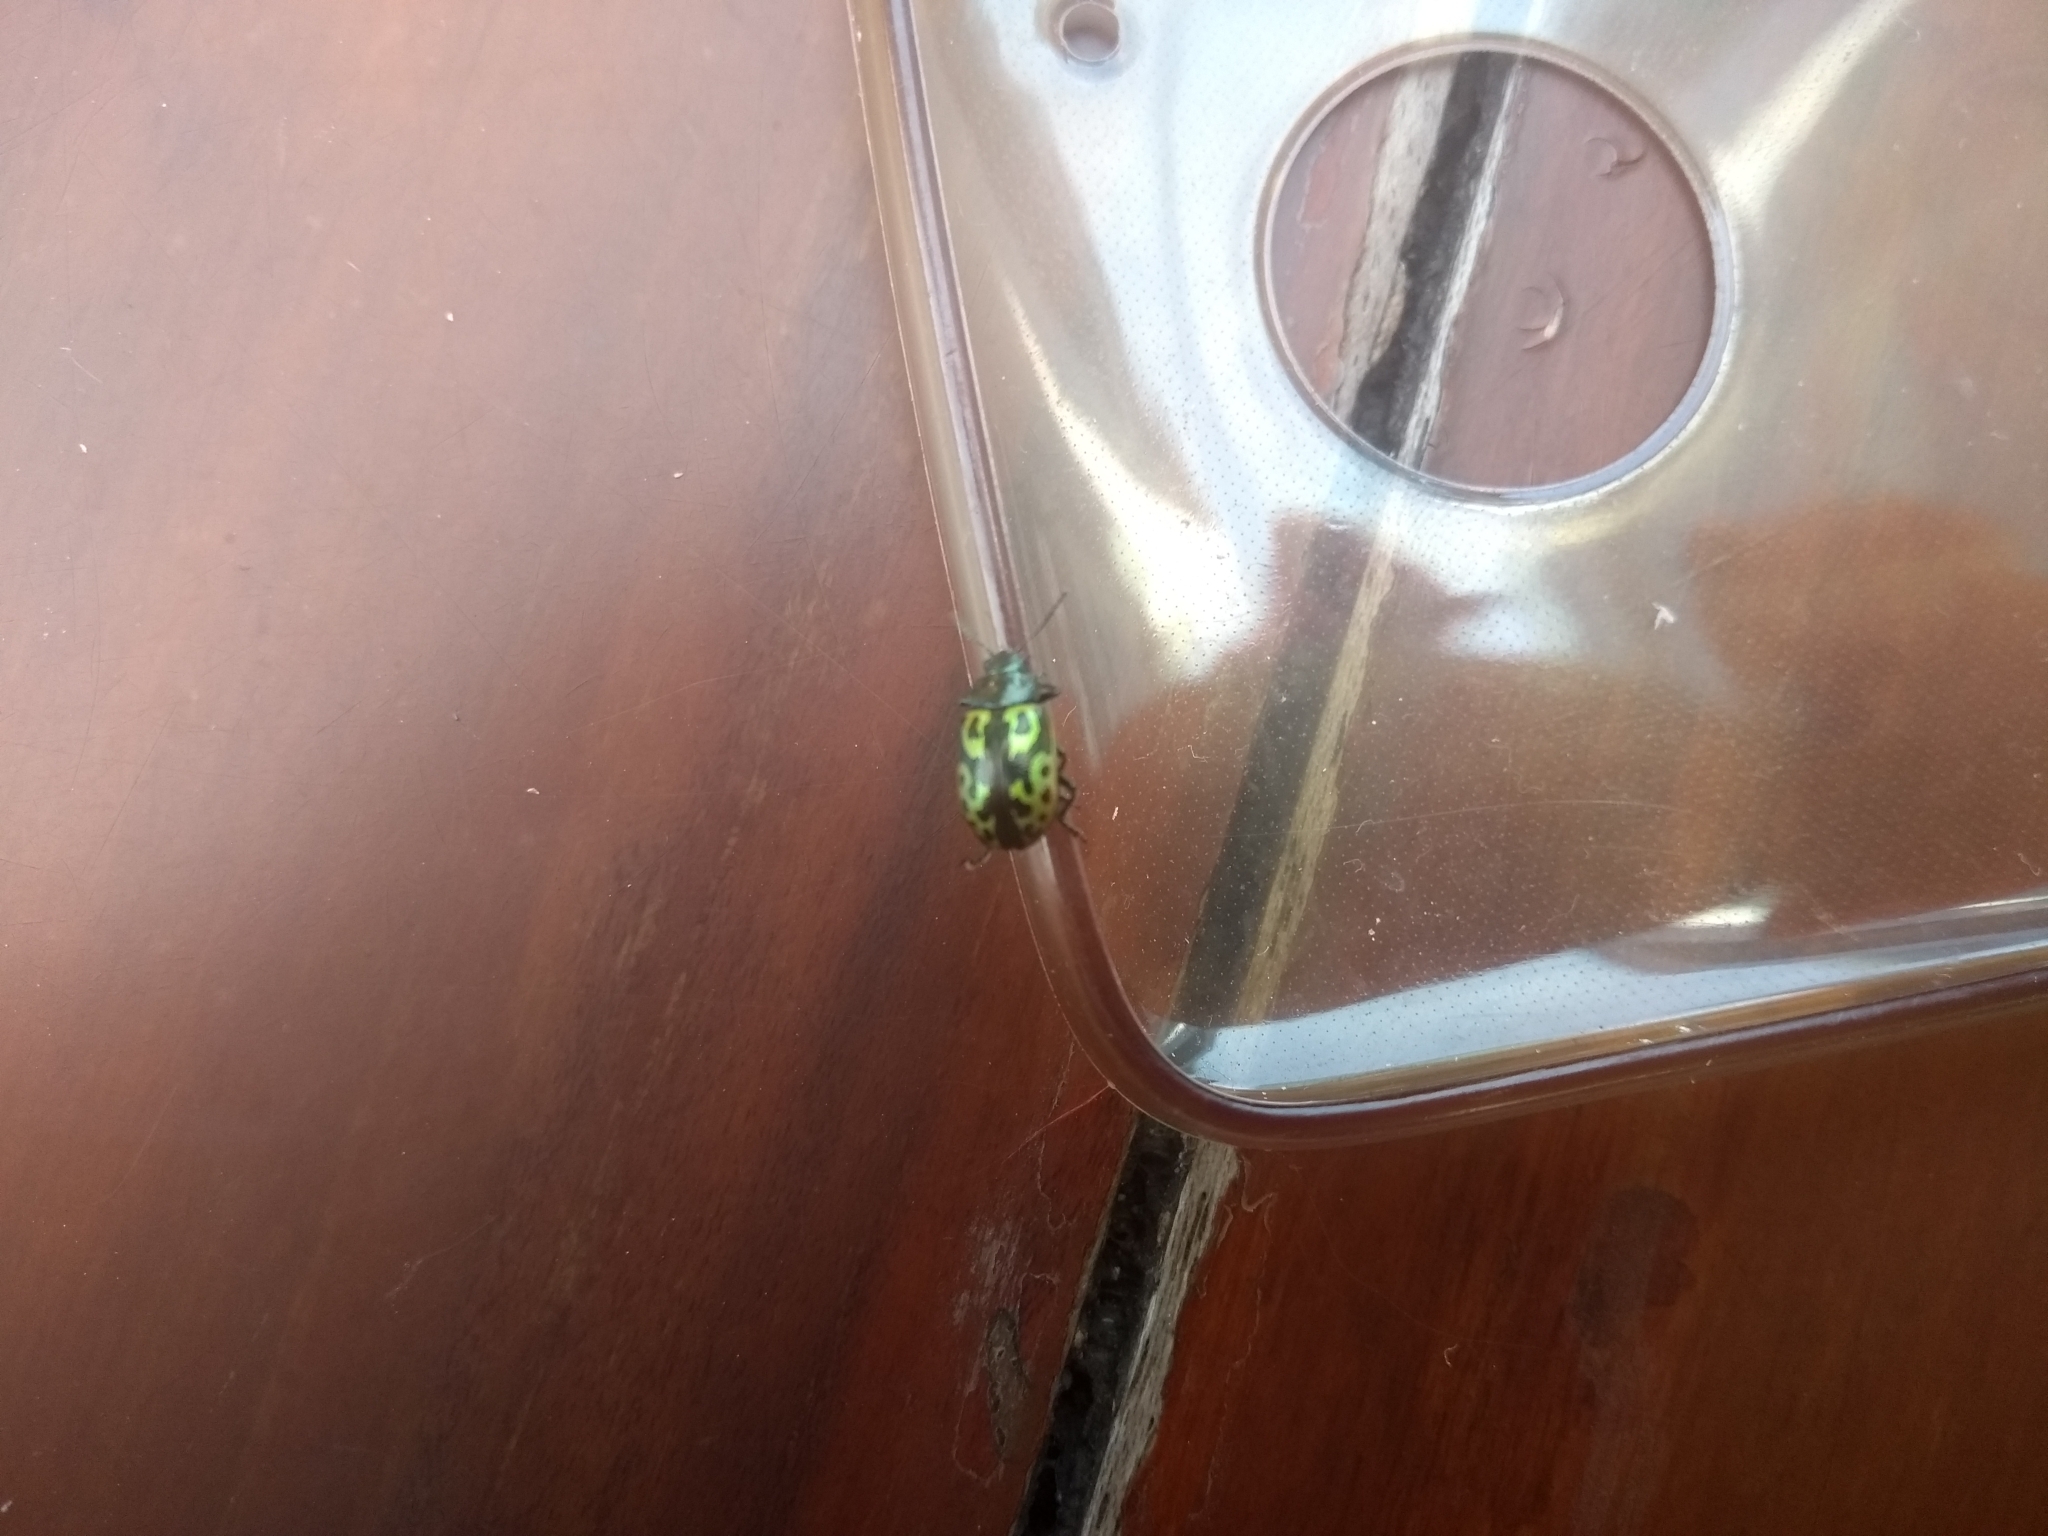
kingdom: Animalia
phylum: Arthropoda
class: Insecta
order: Coleoptera
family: Chrysomelidae
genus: Calligrapha
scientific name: Calligrapha
